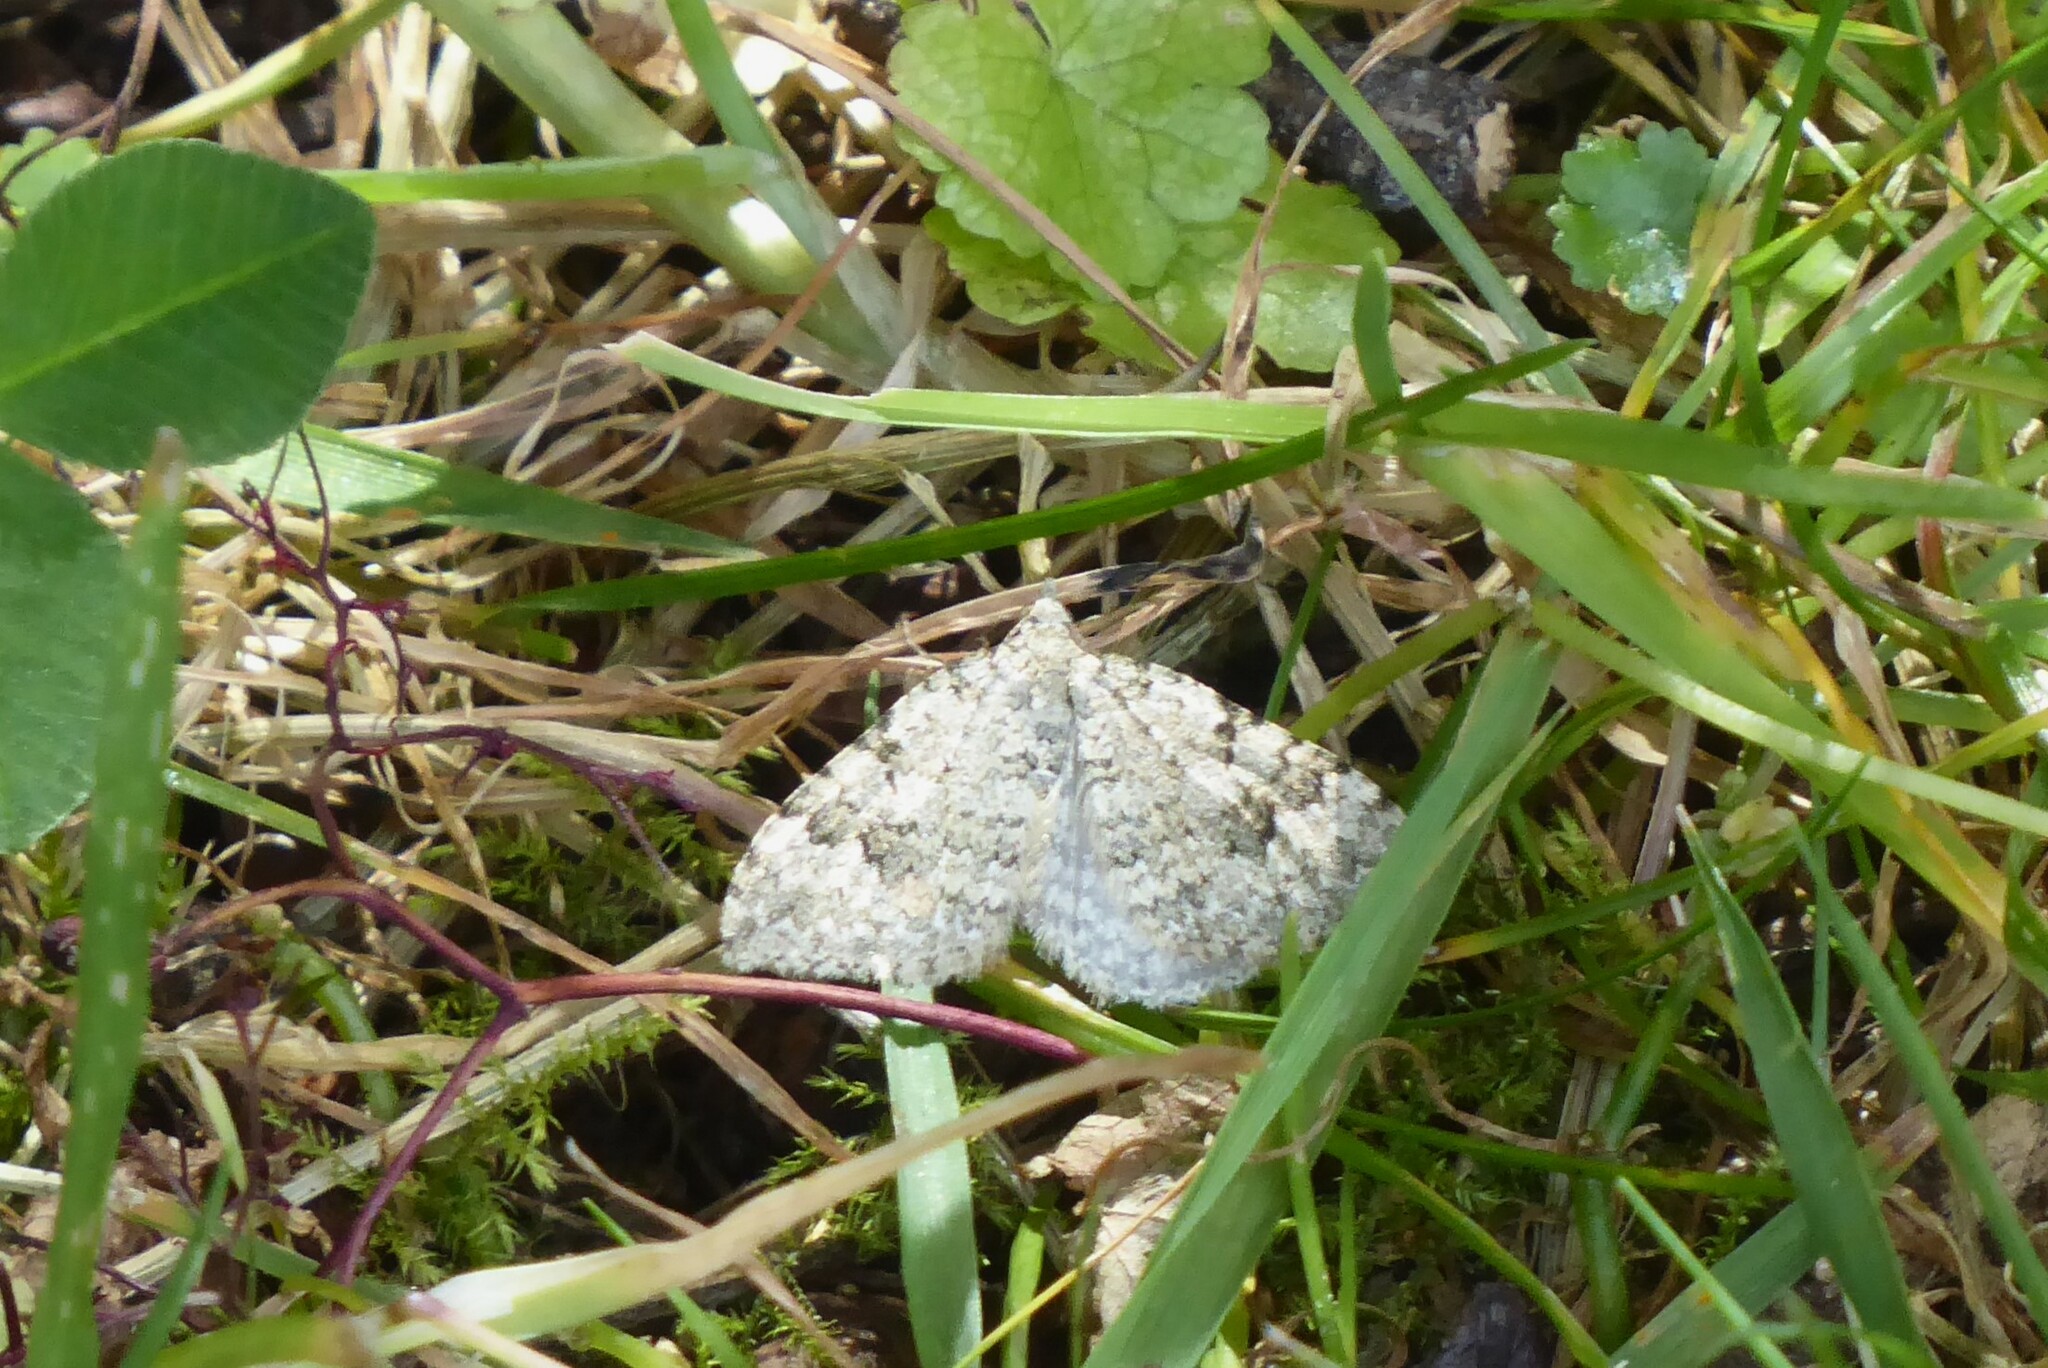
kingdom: Animalia
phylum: Arthropoda
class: Insecta
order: Lepidoptera
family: Geometridae
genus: Helastia
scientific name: Helastia cinerearia
